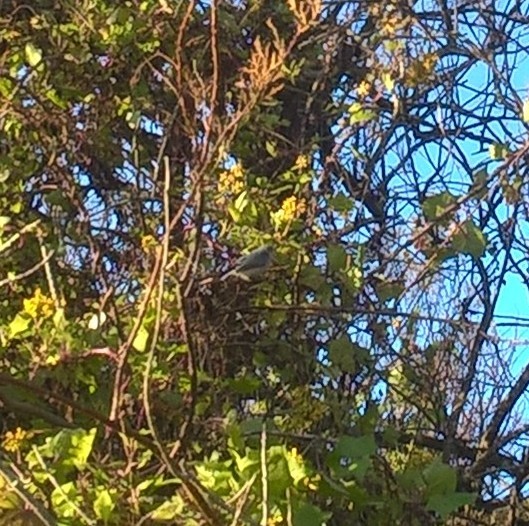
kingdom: Animalia
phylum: Chordata
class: Aves
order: Passeriformes
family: Polioptilidae
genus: Polioptila
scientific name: Polioptila dumicola
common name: Masked gnatcatcher
